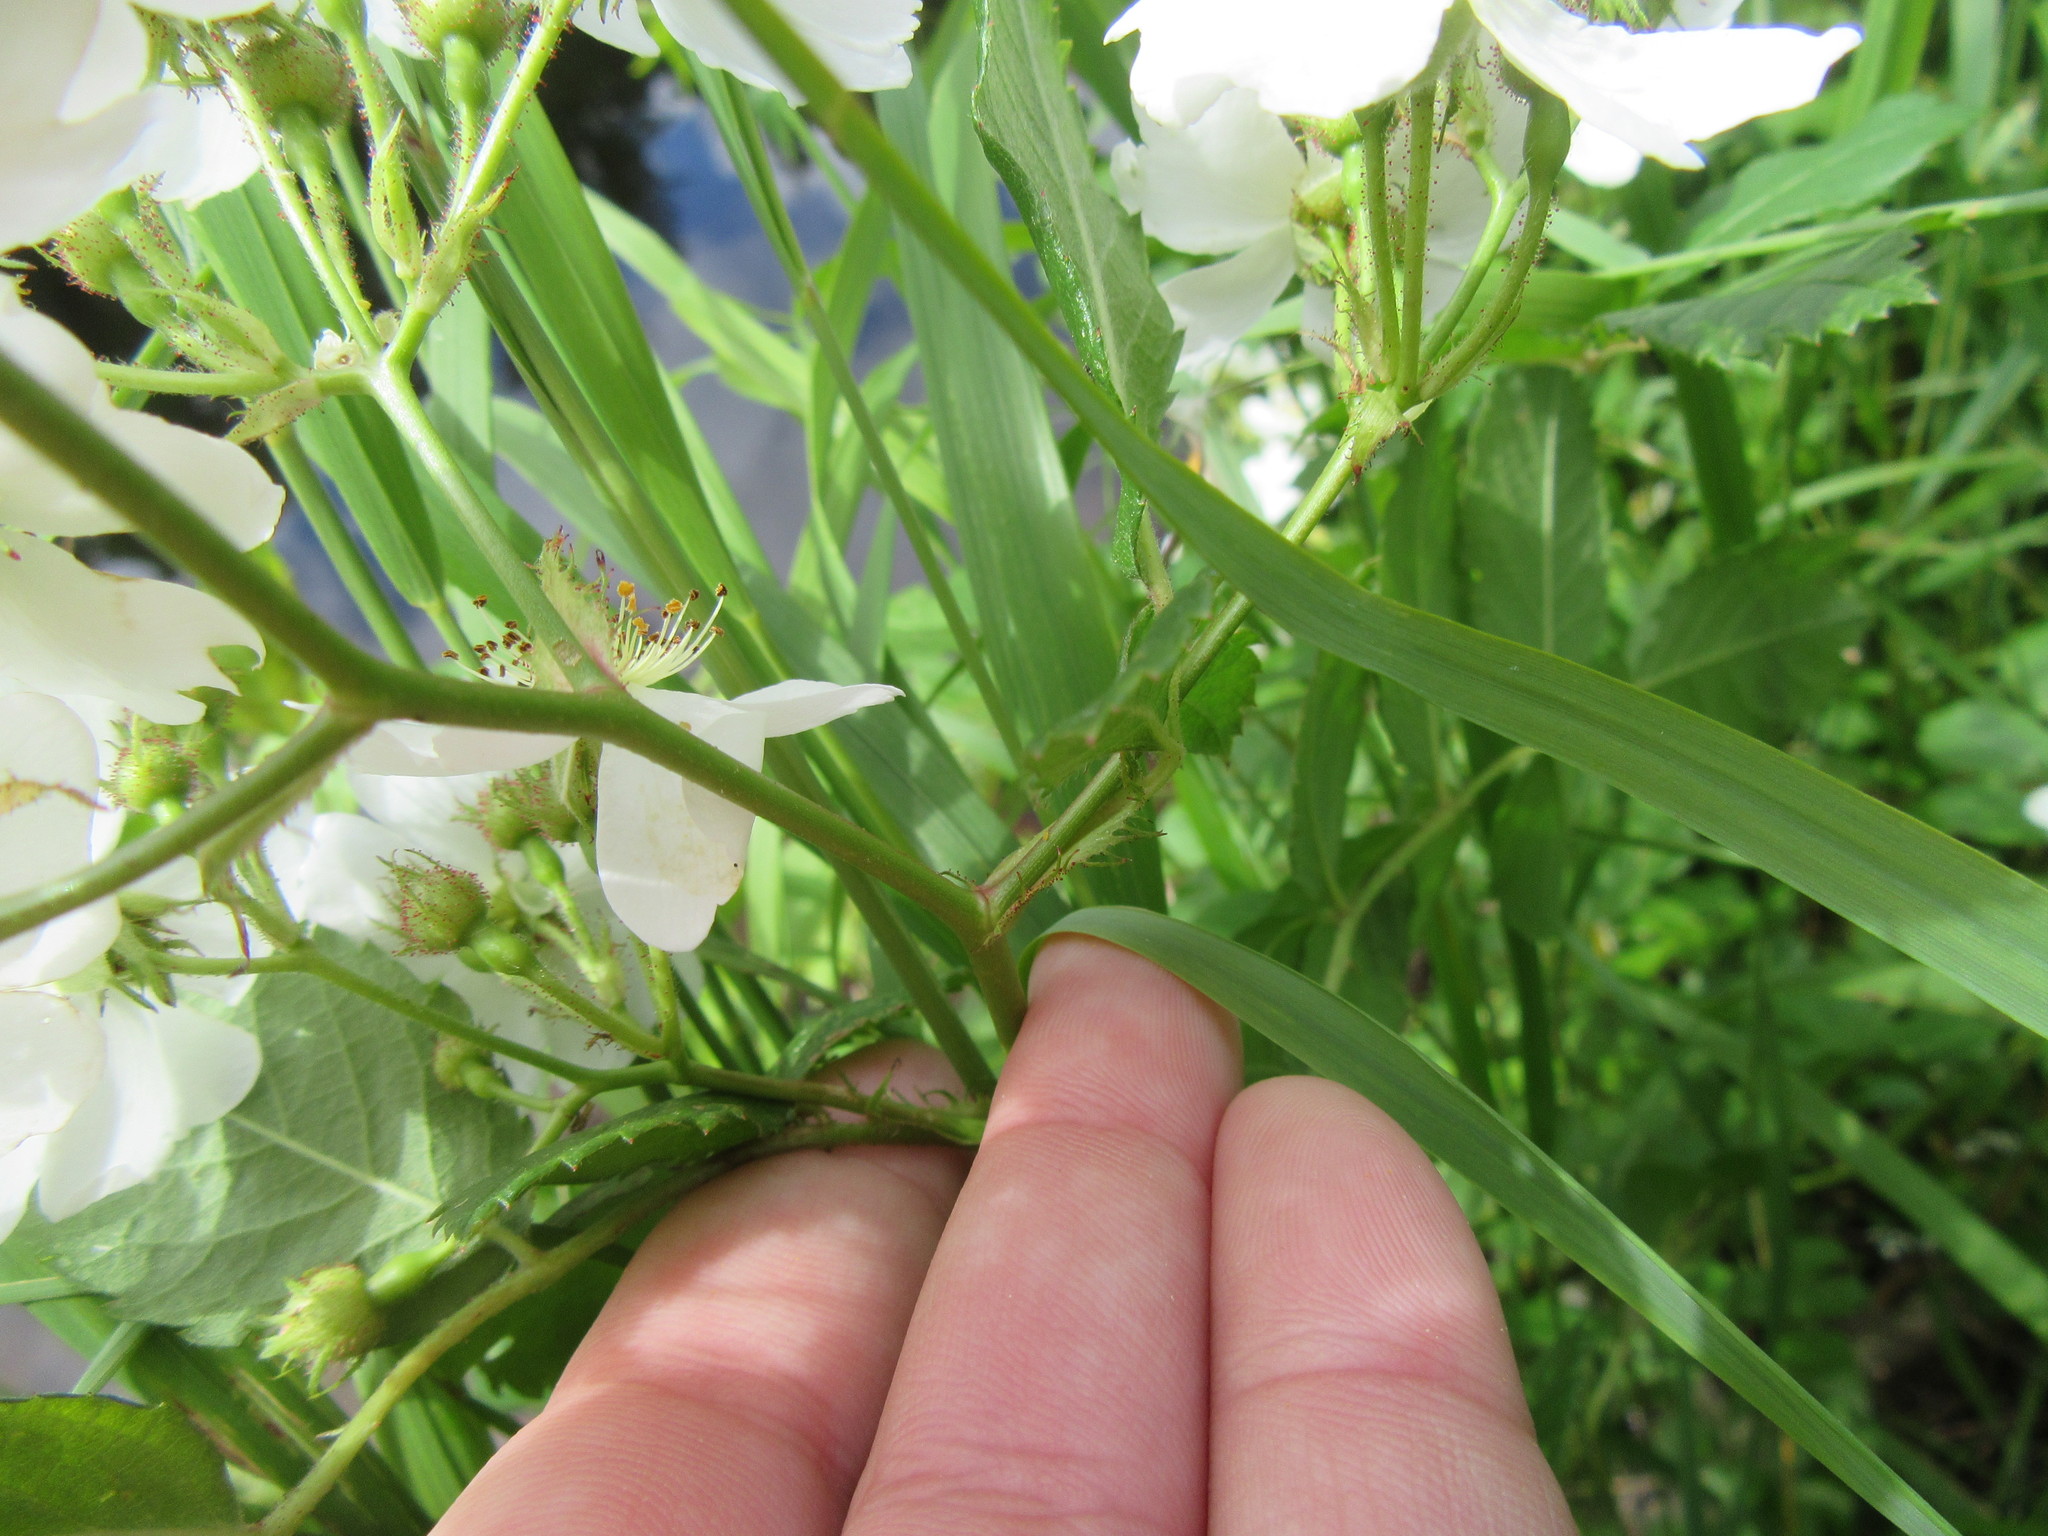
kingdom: Plantae
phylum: Tracheophyta
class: Magnoliopsida
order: Rosales
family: Rosaceae
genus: Rosa
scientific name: Rosa multiflora
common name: Multiflora rose
